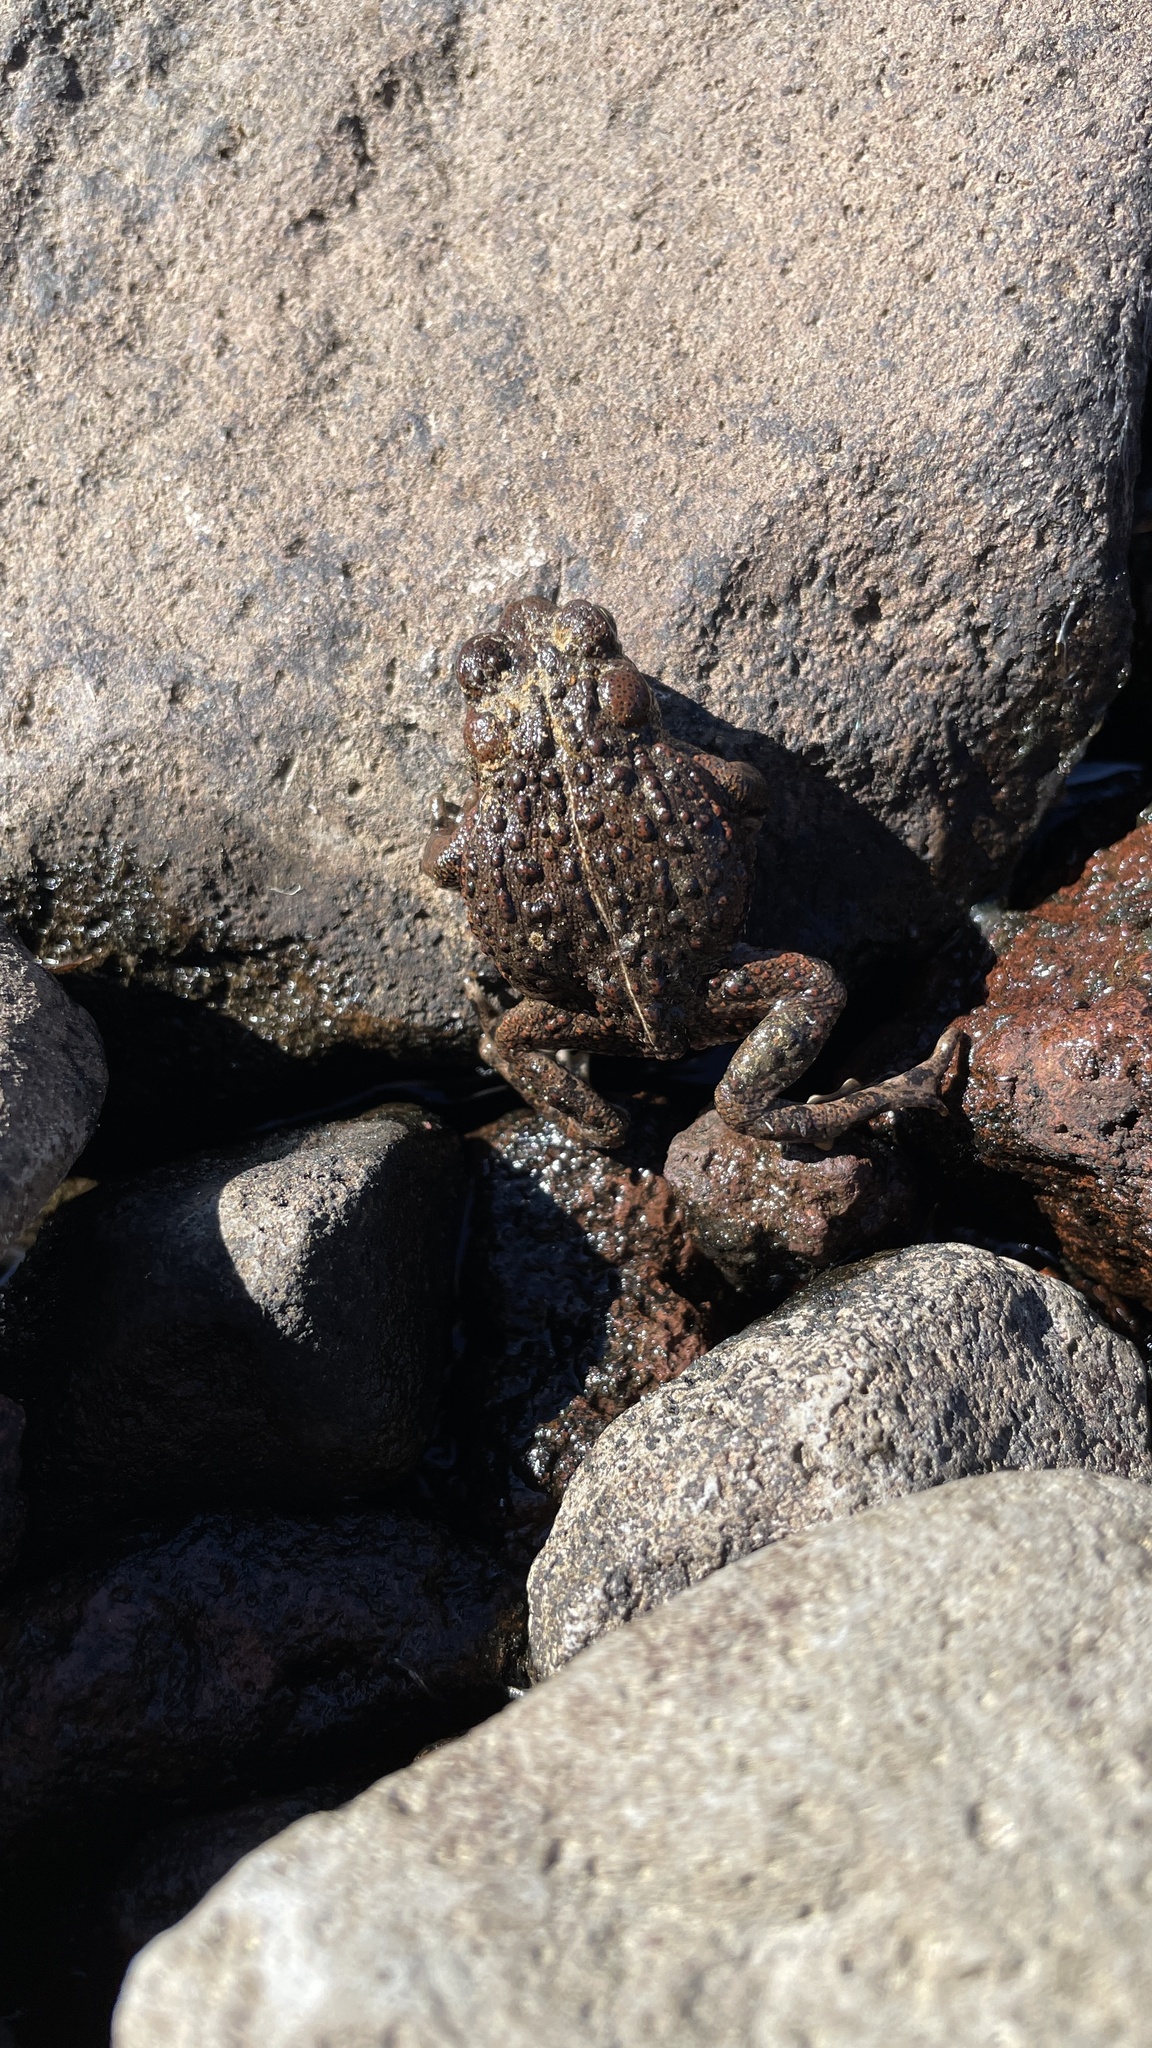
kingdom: Animalia
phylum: Chordata
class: Amphibia
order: Anura
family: Bufonidae
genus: Anaxyrus
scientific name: Anaxyrus boreas
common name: Western toad
